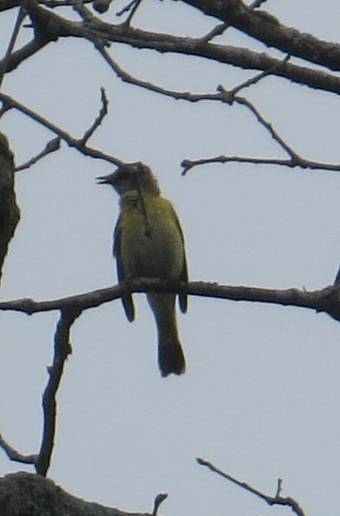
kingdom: Animalia
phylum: Chordata
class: Aves
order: Passeriformes
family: Tyrannidae
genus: Myiarchus
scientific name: Myiarchus crinitus
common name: Great crested flycatcher
